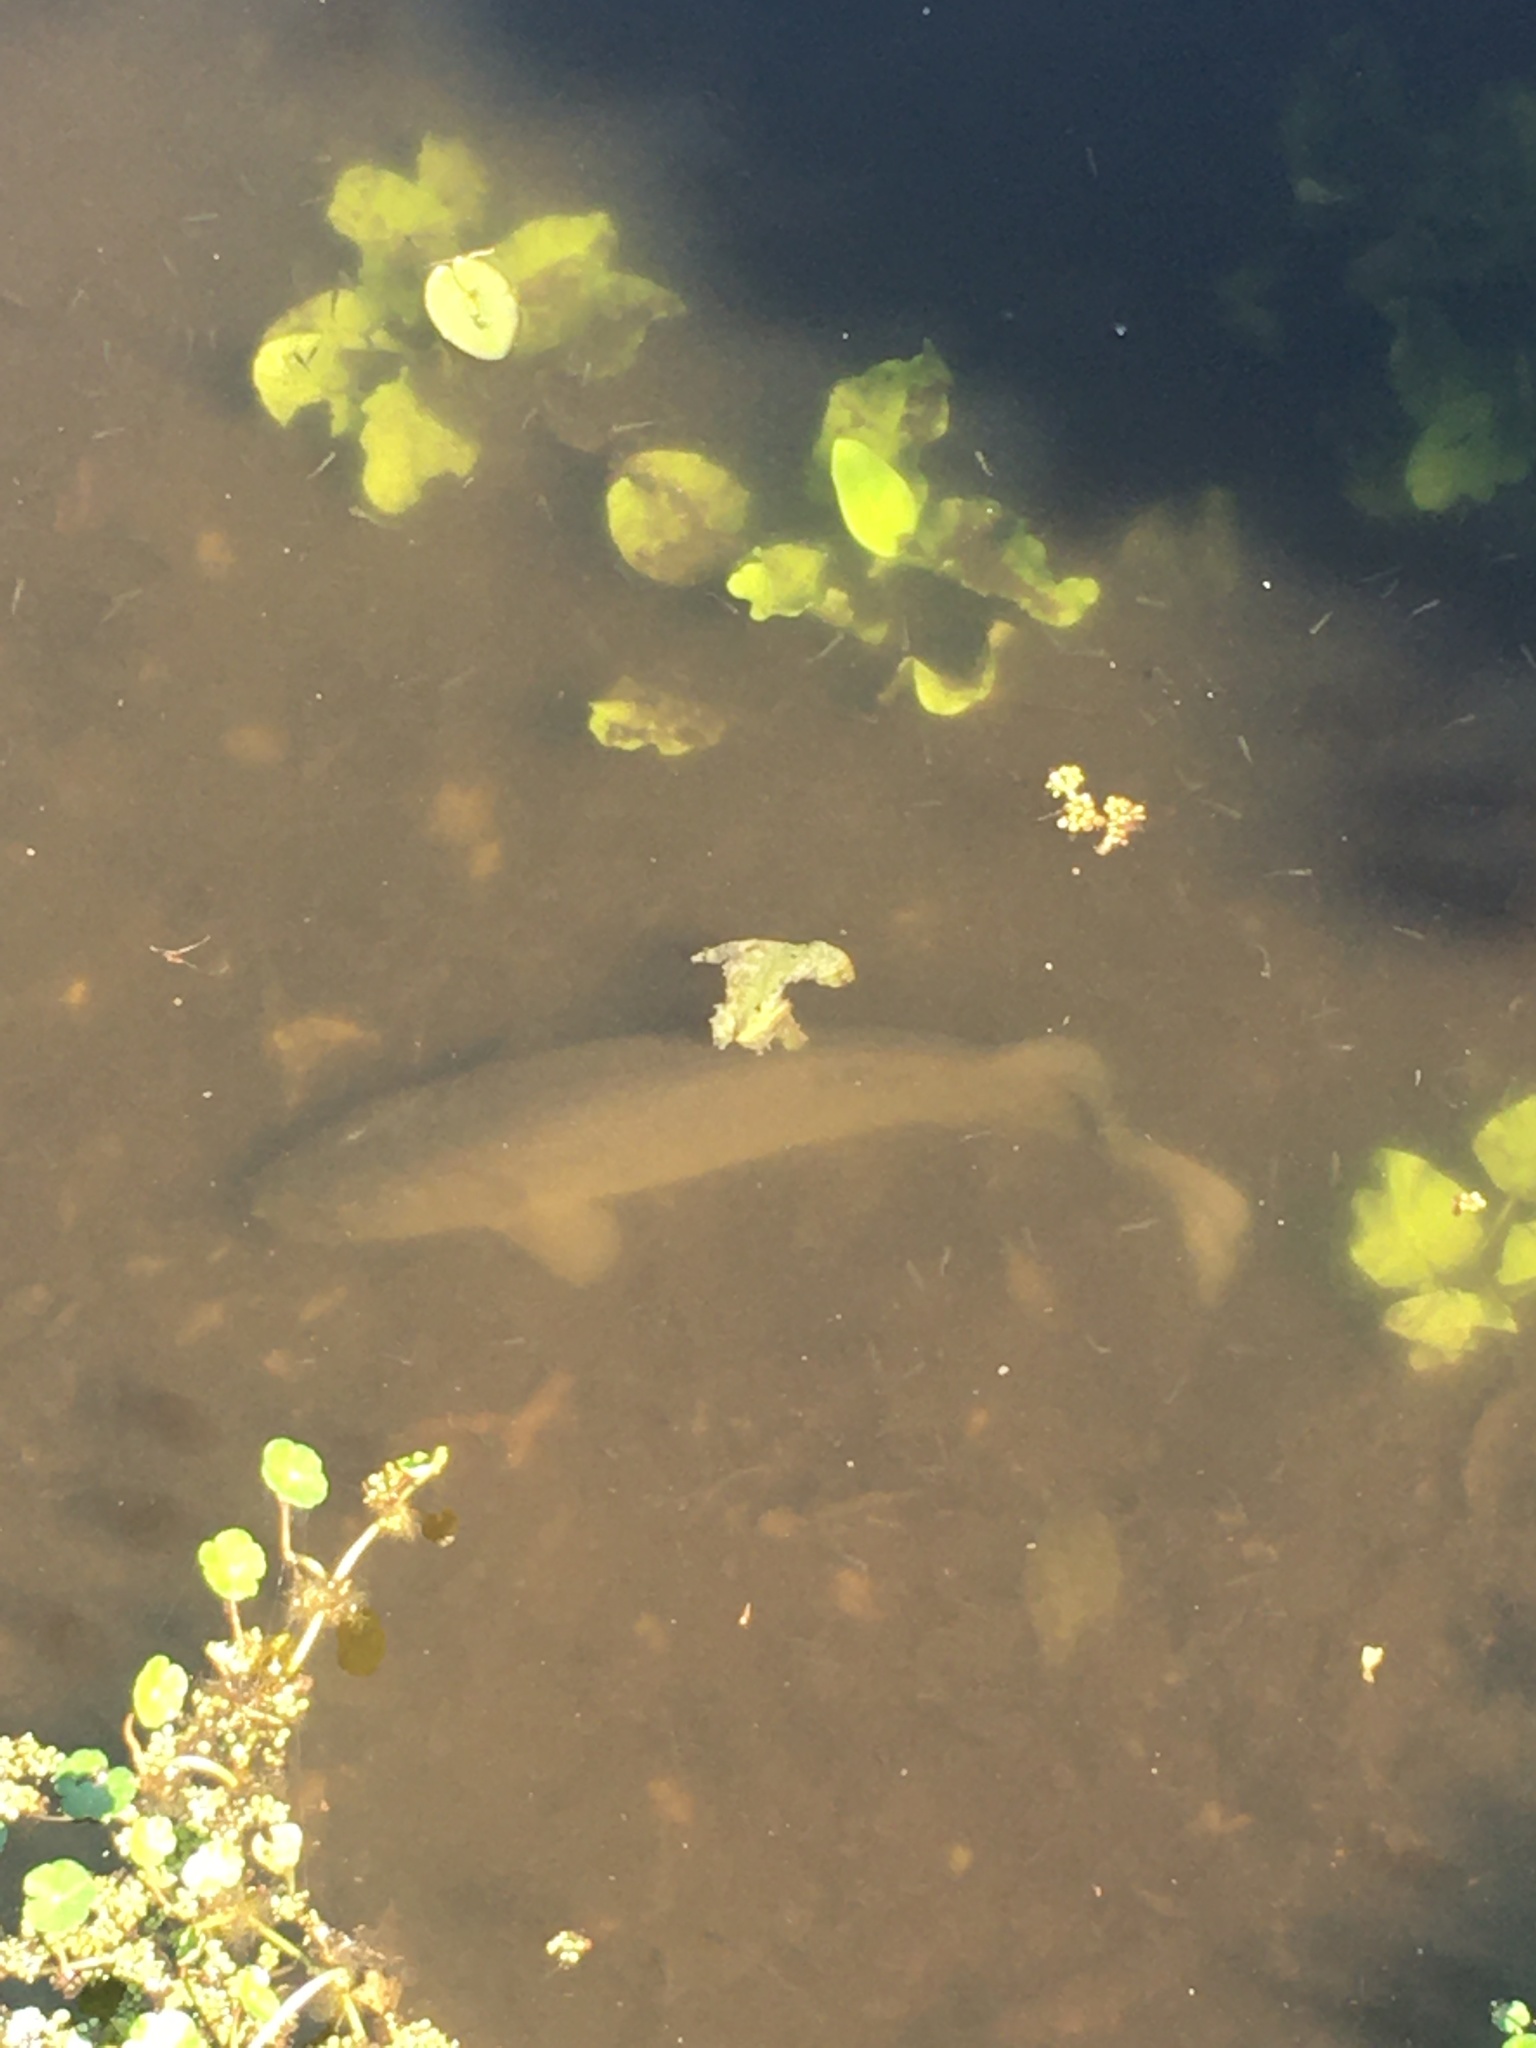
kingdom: Animalia
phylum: Chordata
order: Amiiformes
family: Amiidae
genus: Amia
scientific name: Amia calva
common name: Bowfin
